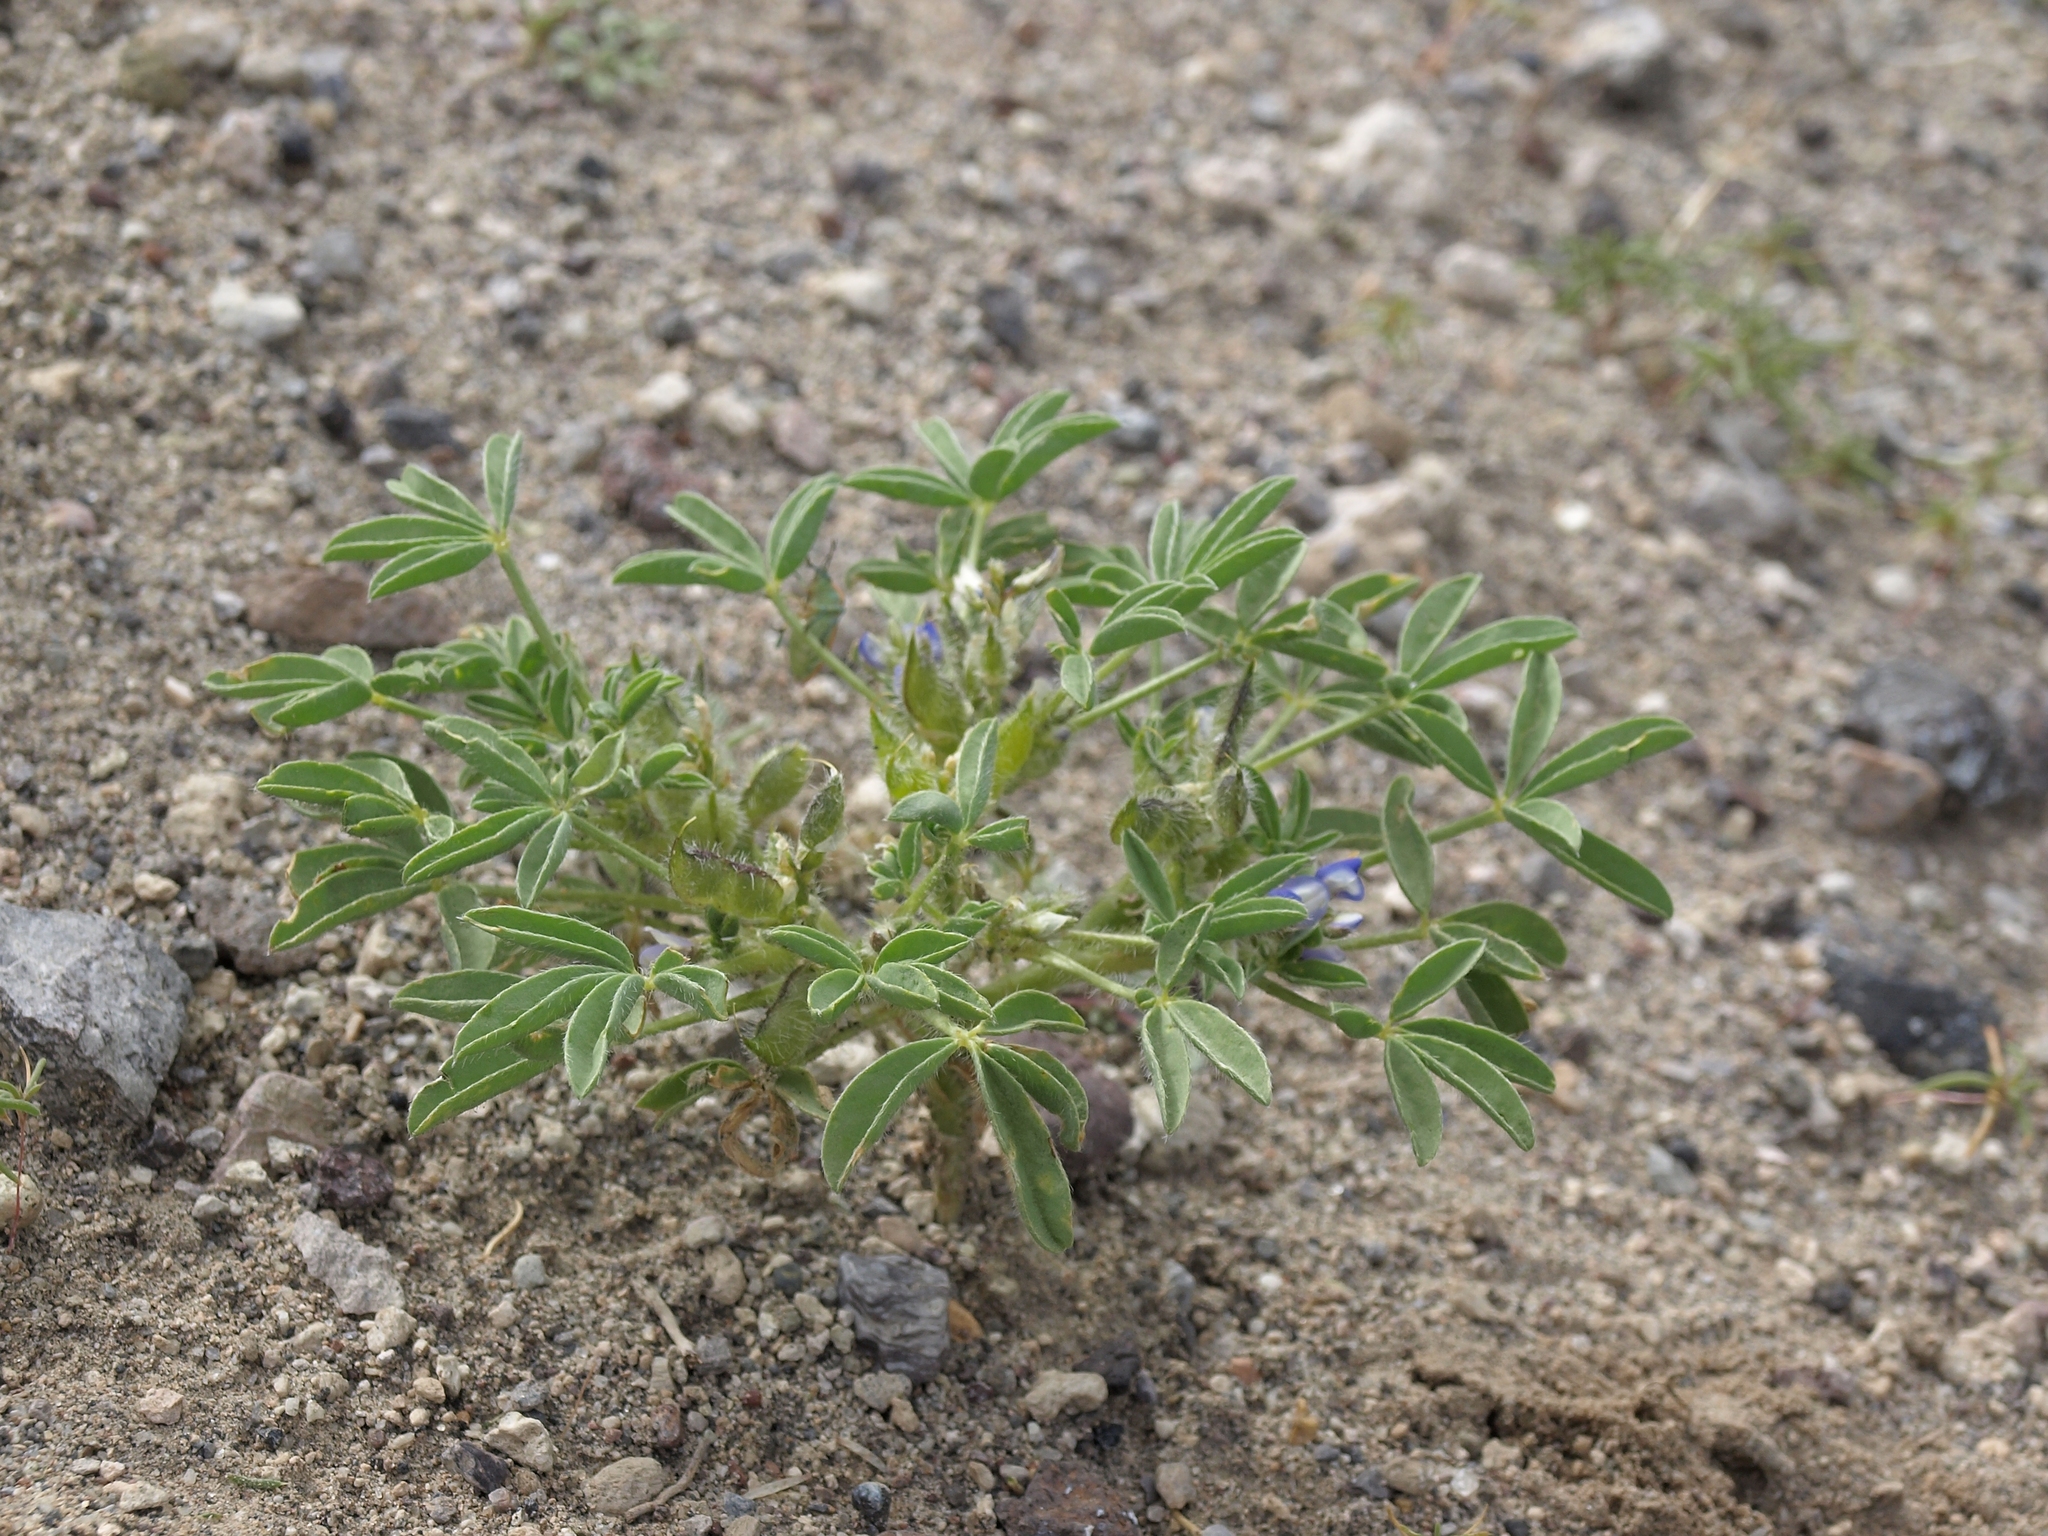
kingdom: Plantae
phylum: Tracheophyta
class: Magnoliopsida
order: Fabales
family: Fabaceae
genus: Lupinus
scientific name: Lupinus pusillus
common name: Low lupine
